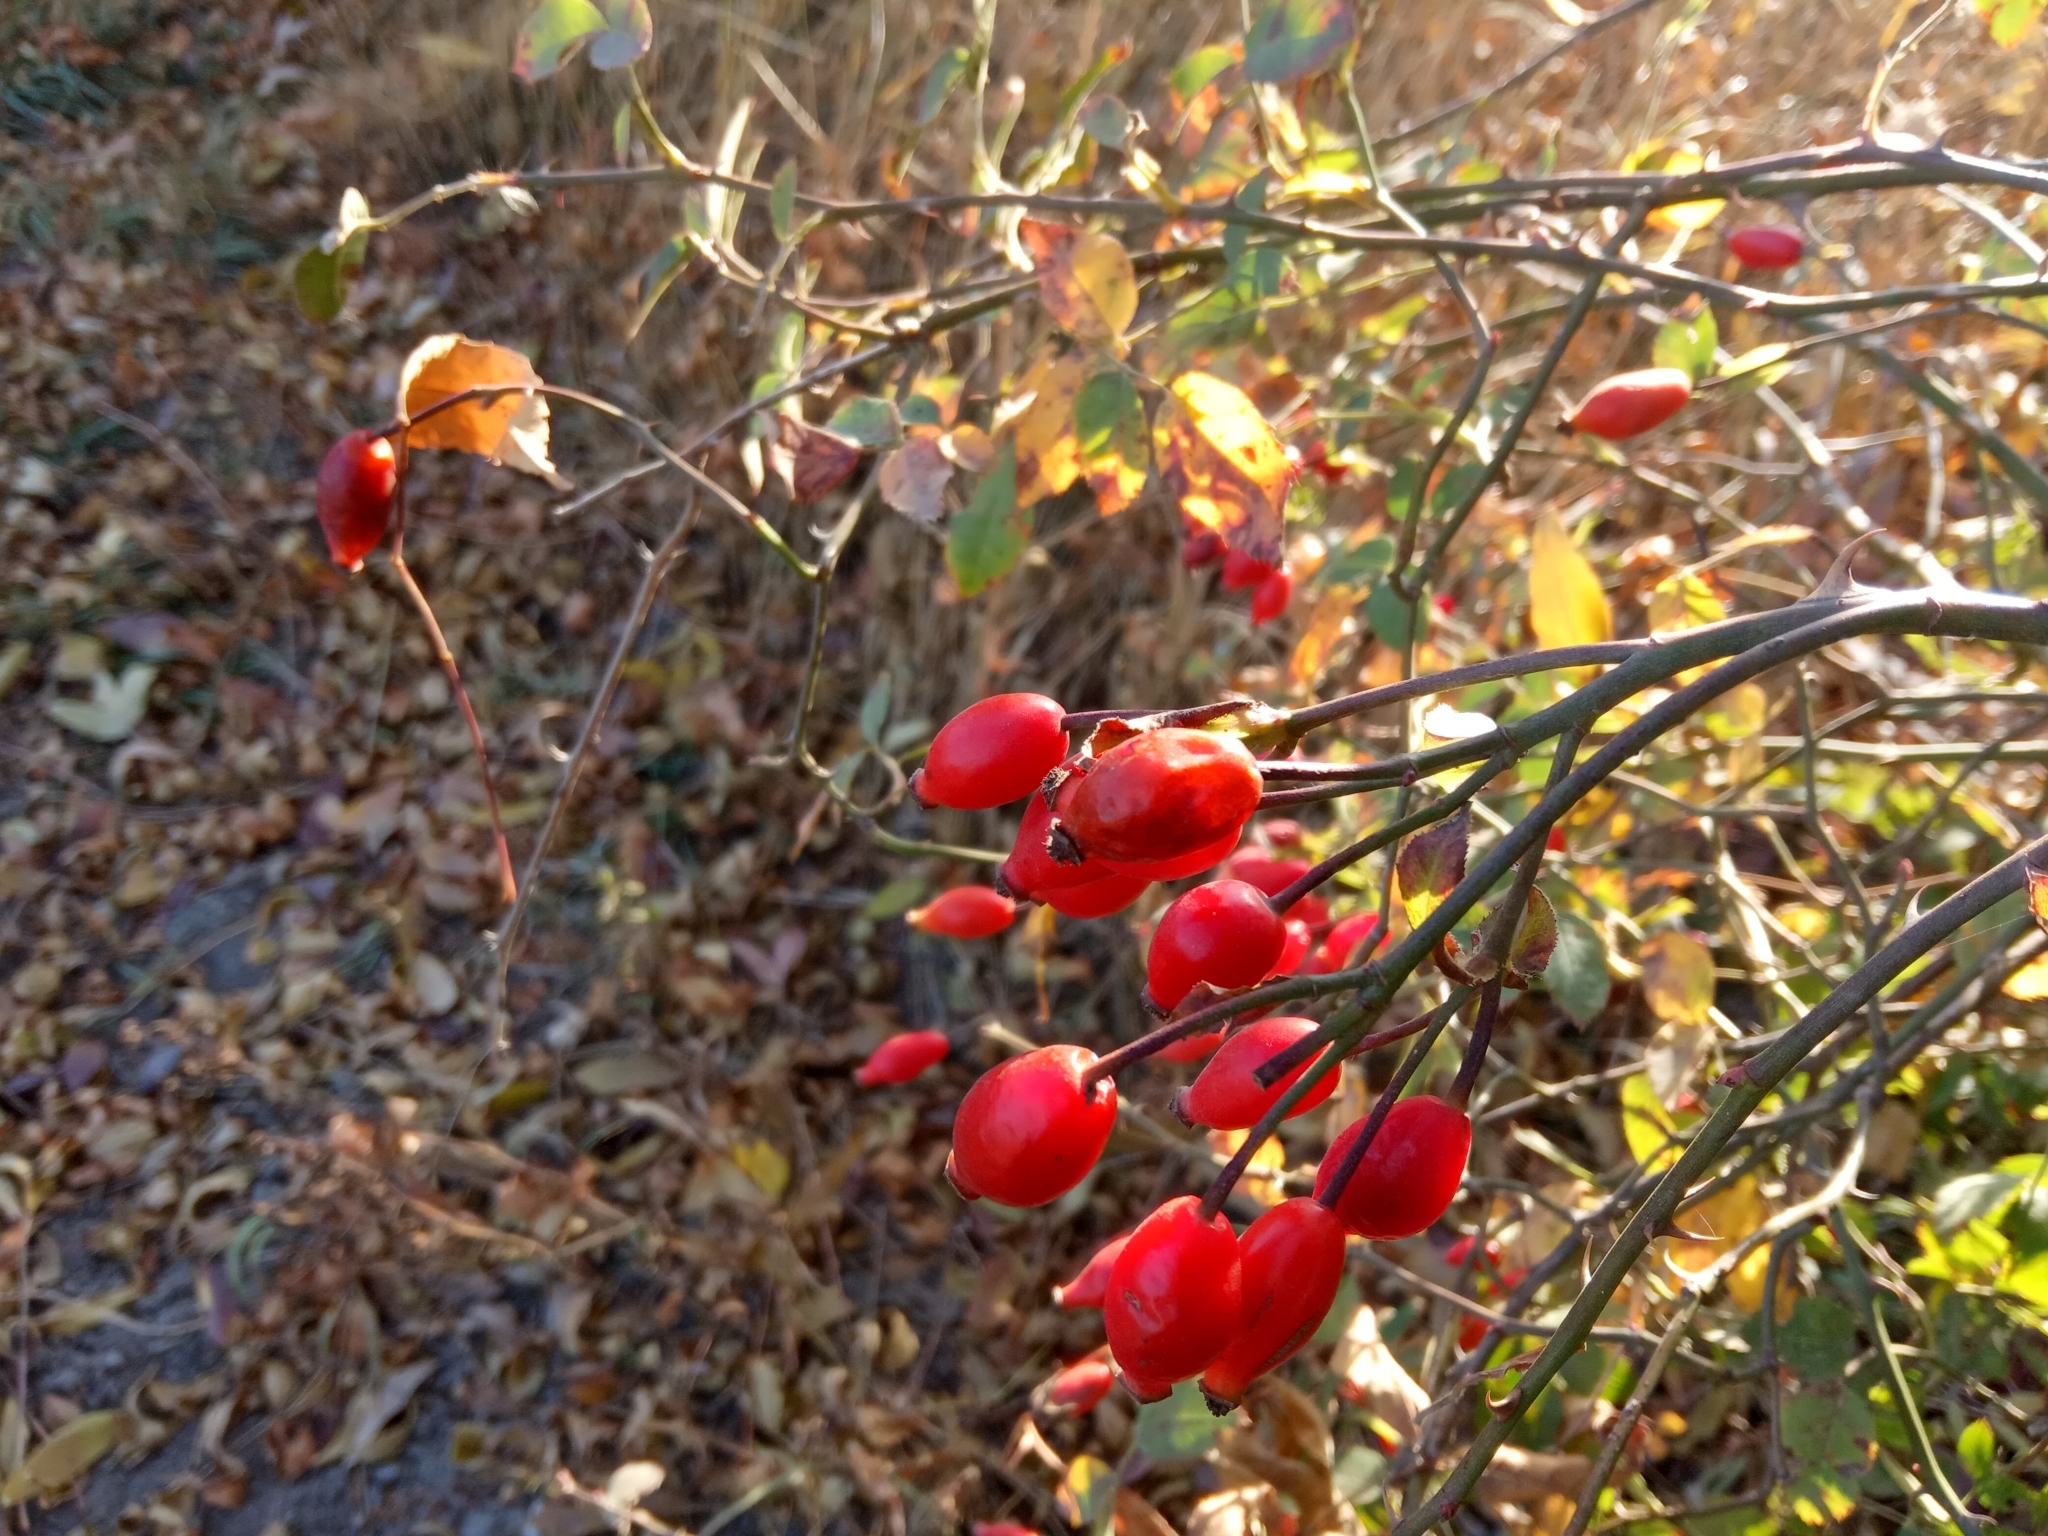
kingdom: Plantae
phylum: Tracheophyta
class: Magnoliopsida
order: Rosales
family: Rosaceae
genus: Rosa
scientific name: Rosa
